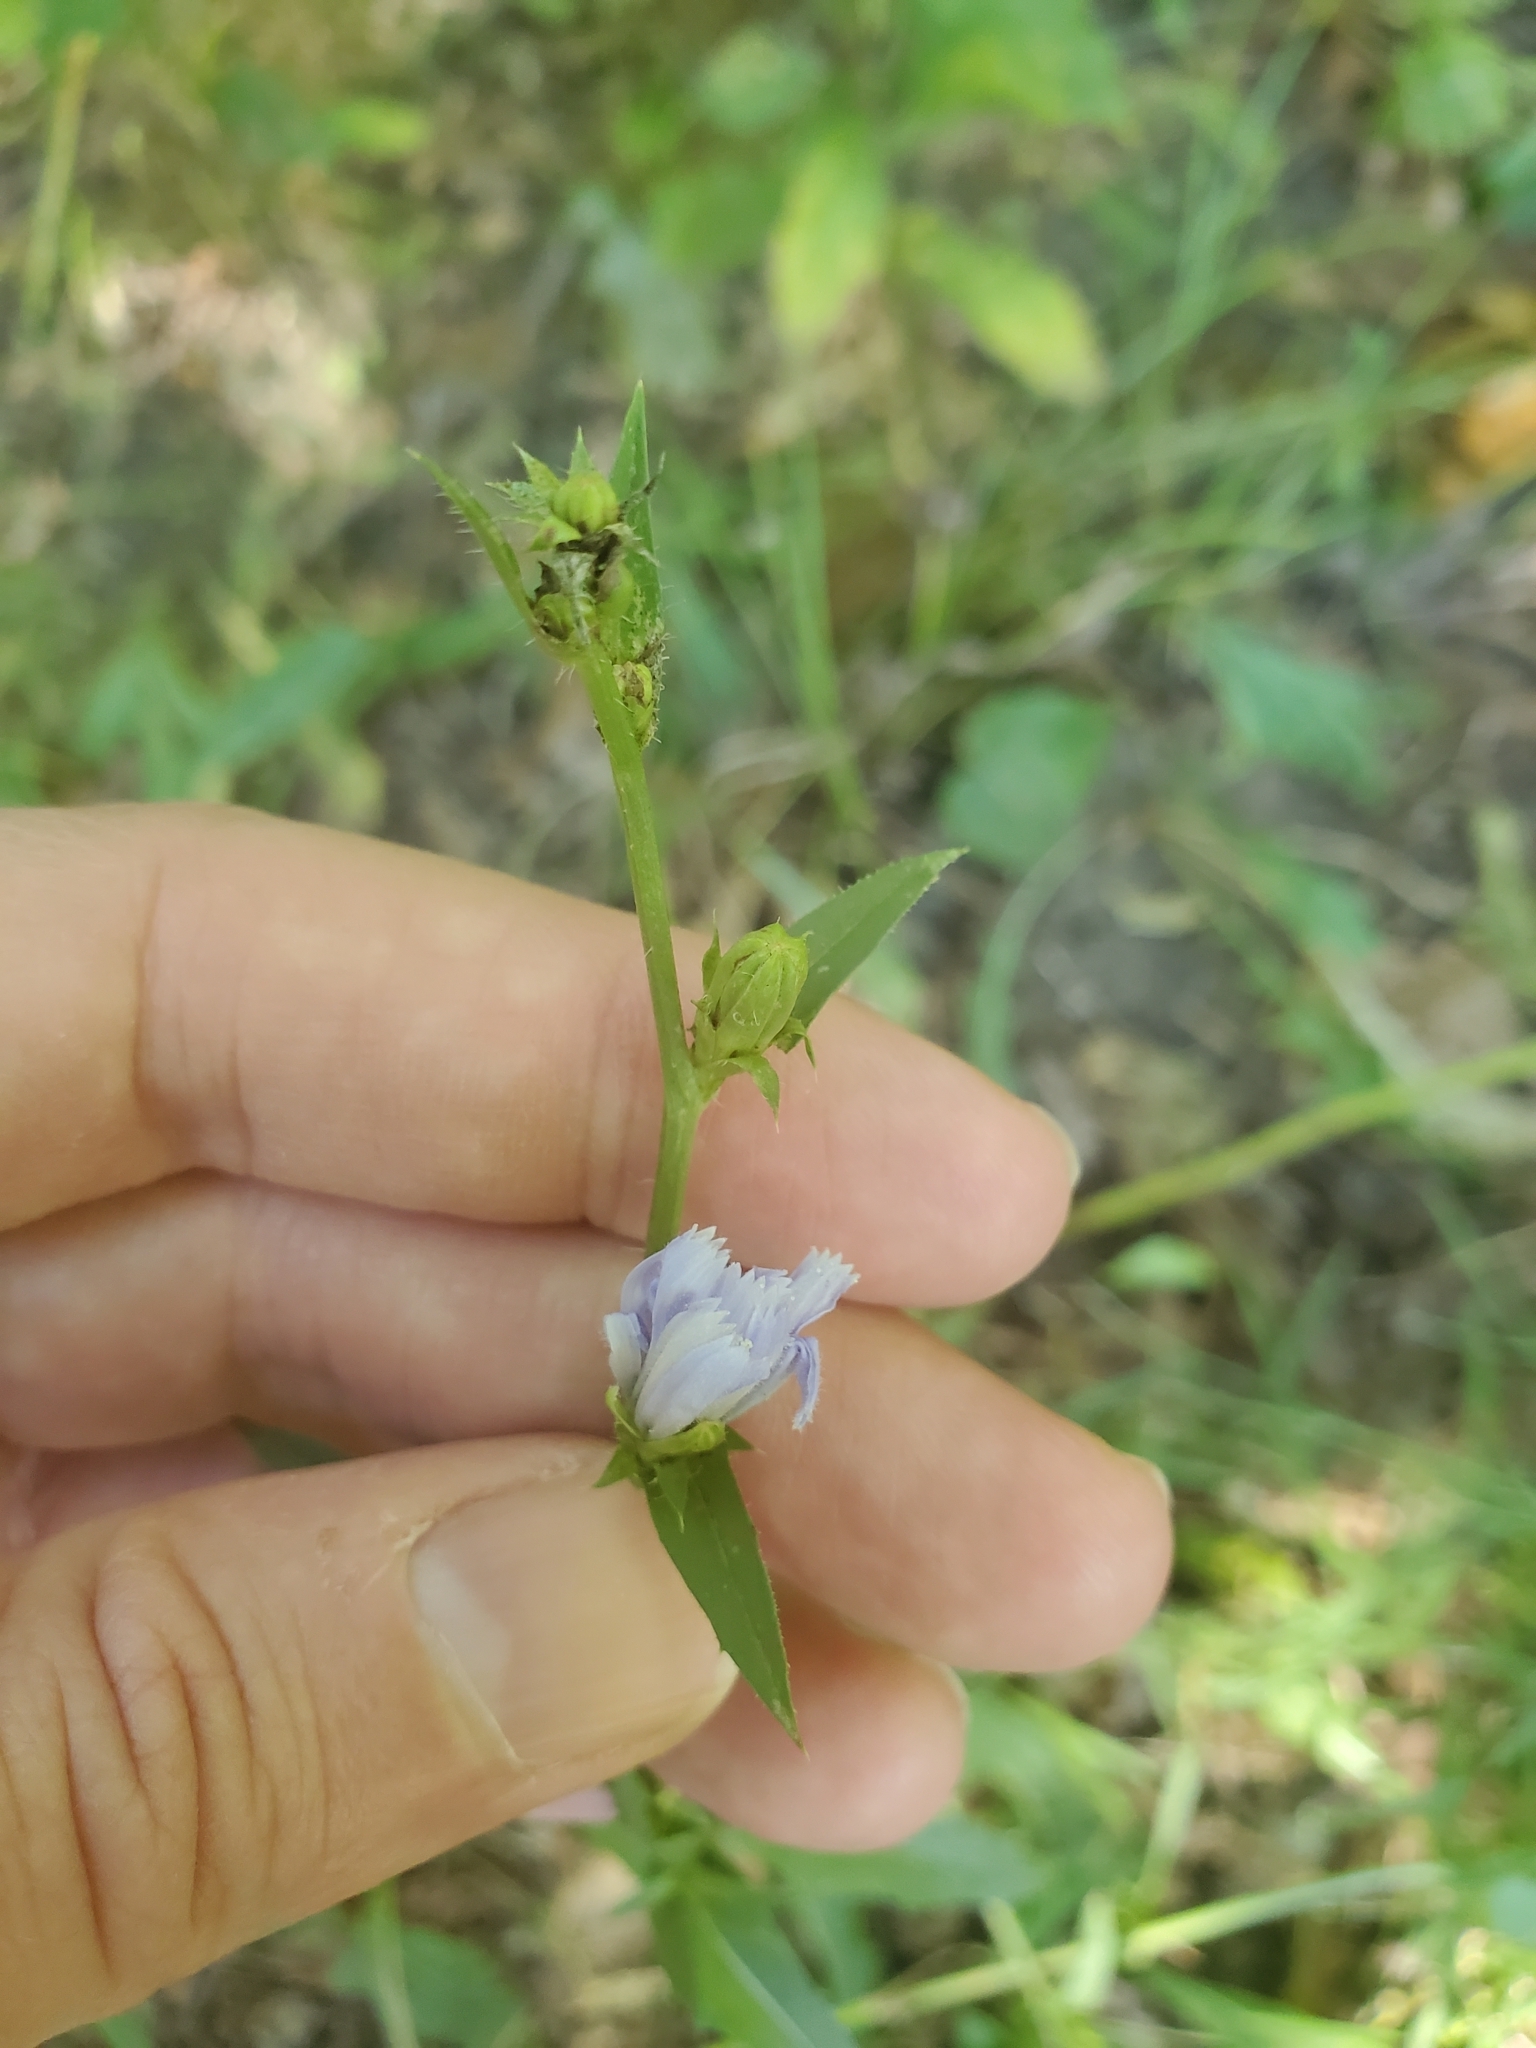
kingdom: Plantae
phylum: Tracheophyta
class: Magnoliopsida
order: Asterales
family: Asteraceae
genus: Cichorium
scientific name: Cichorium intybus
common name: Chicory
